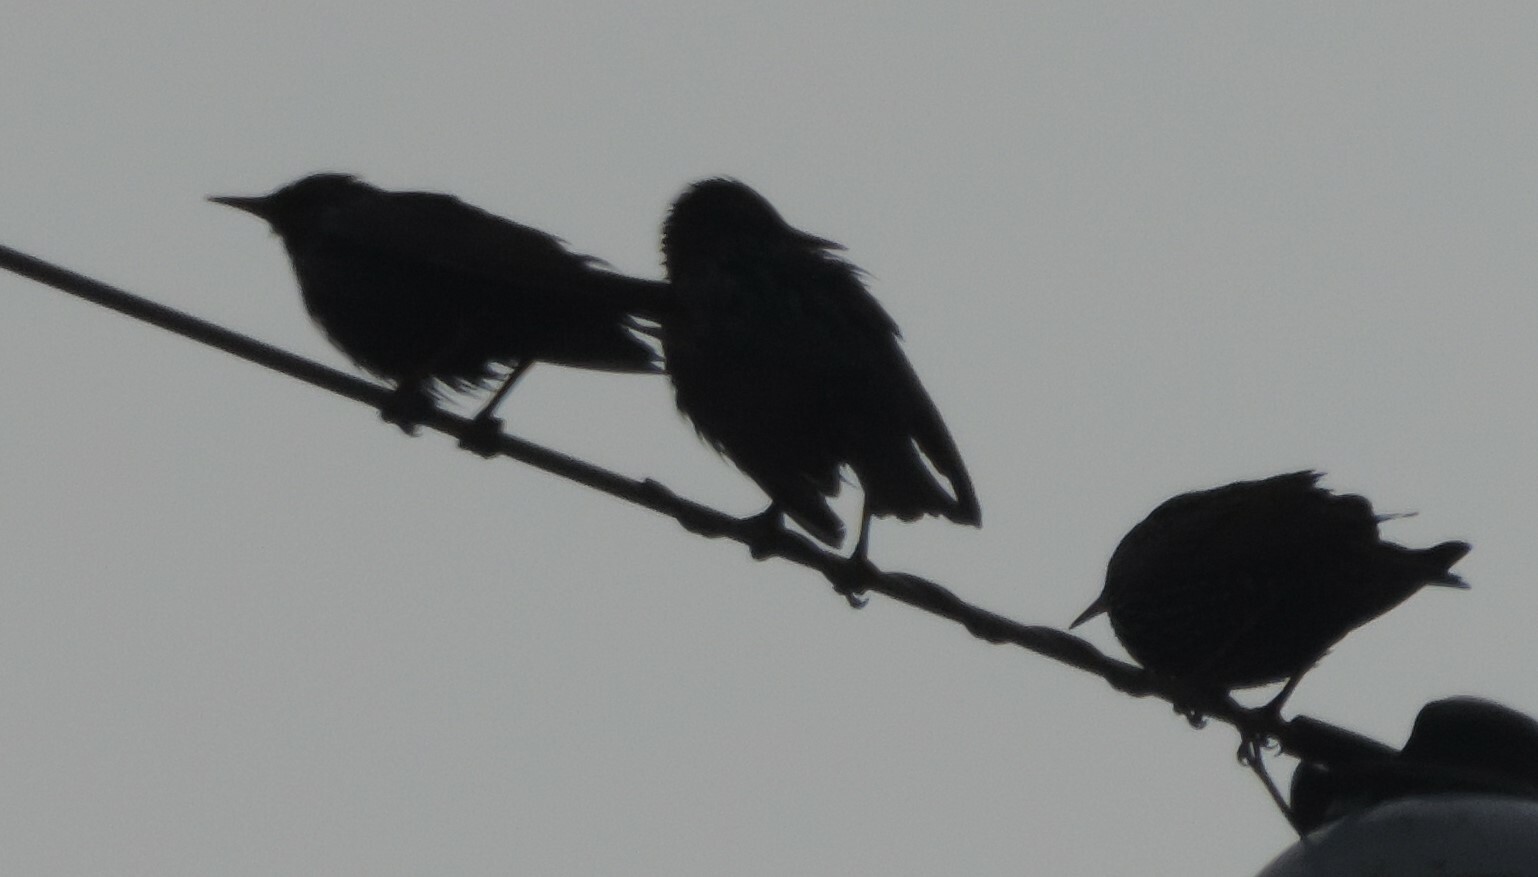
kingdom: Animalia
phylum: Chordata
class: Aves
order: Passeriformes
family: Sturnidae
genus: Sturnus
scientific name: Sturnus vulgaris
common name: Common starling
